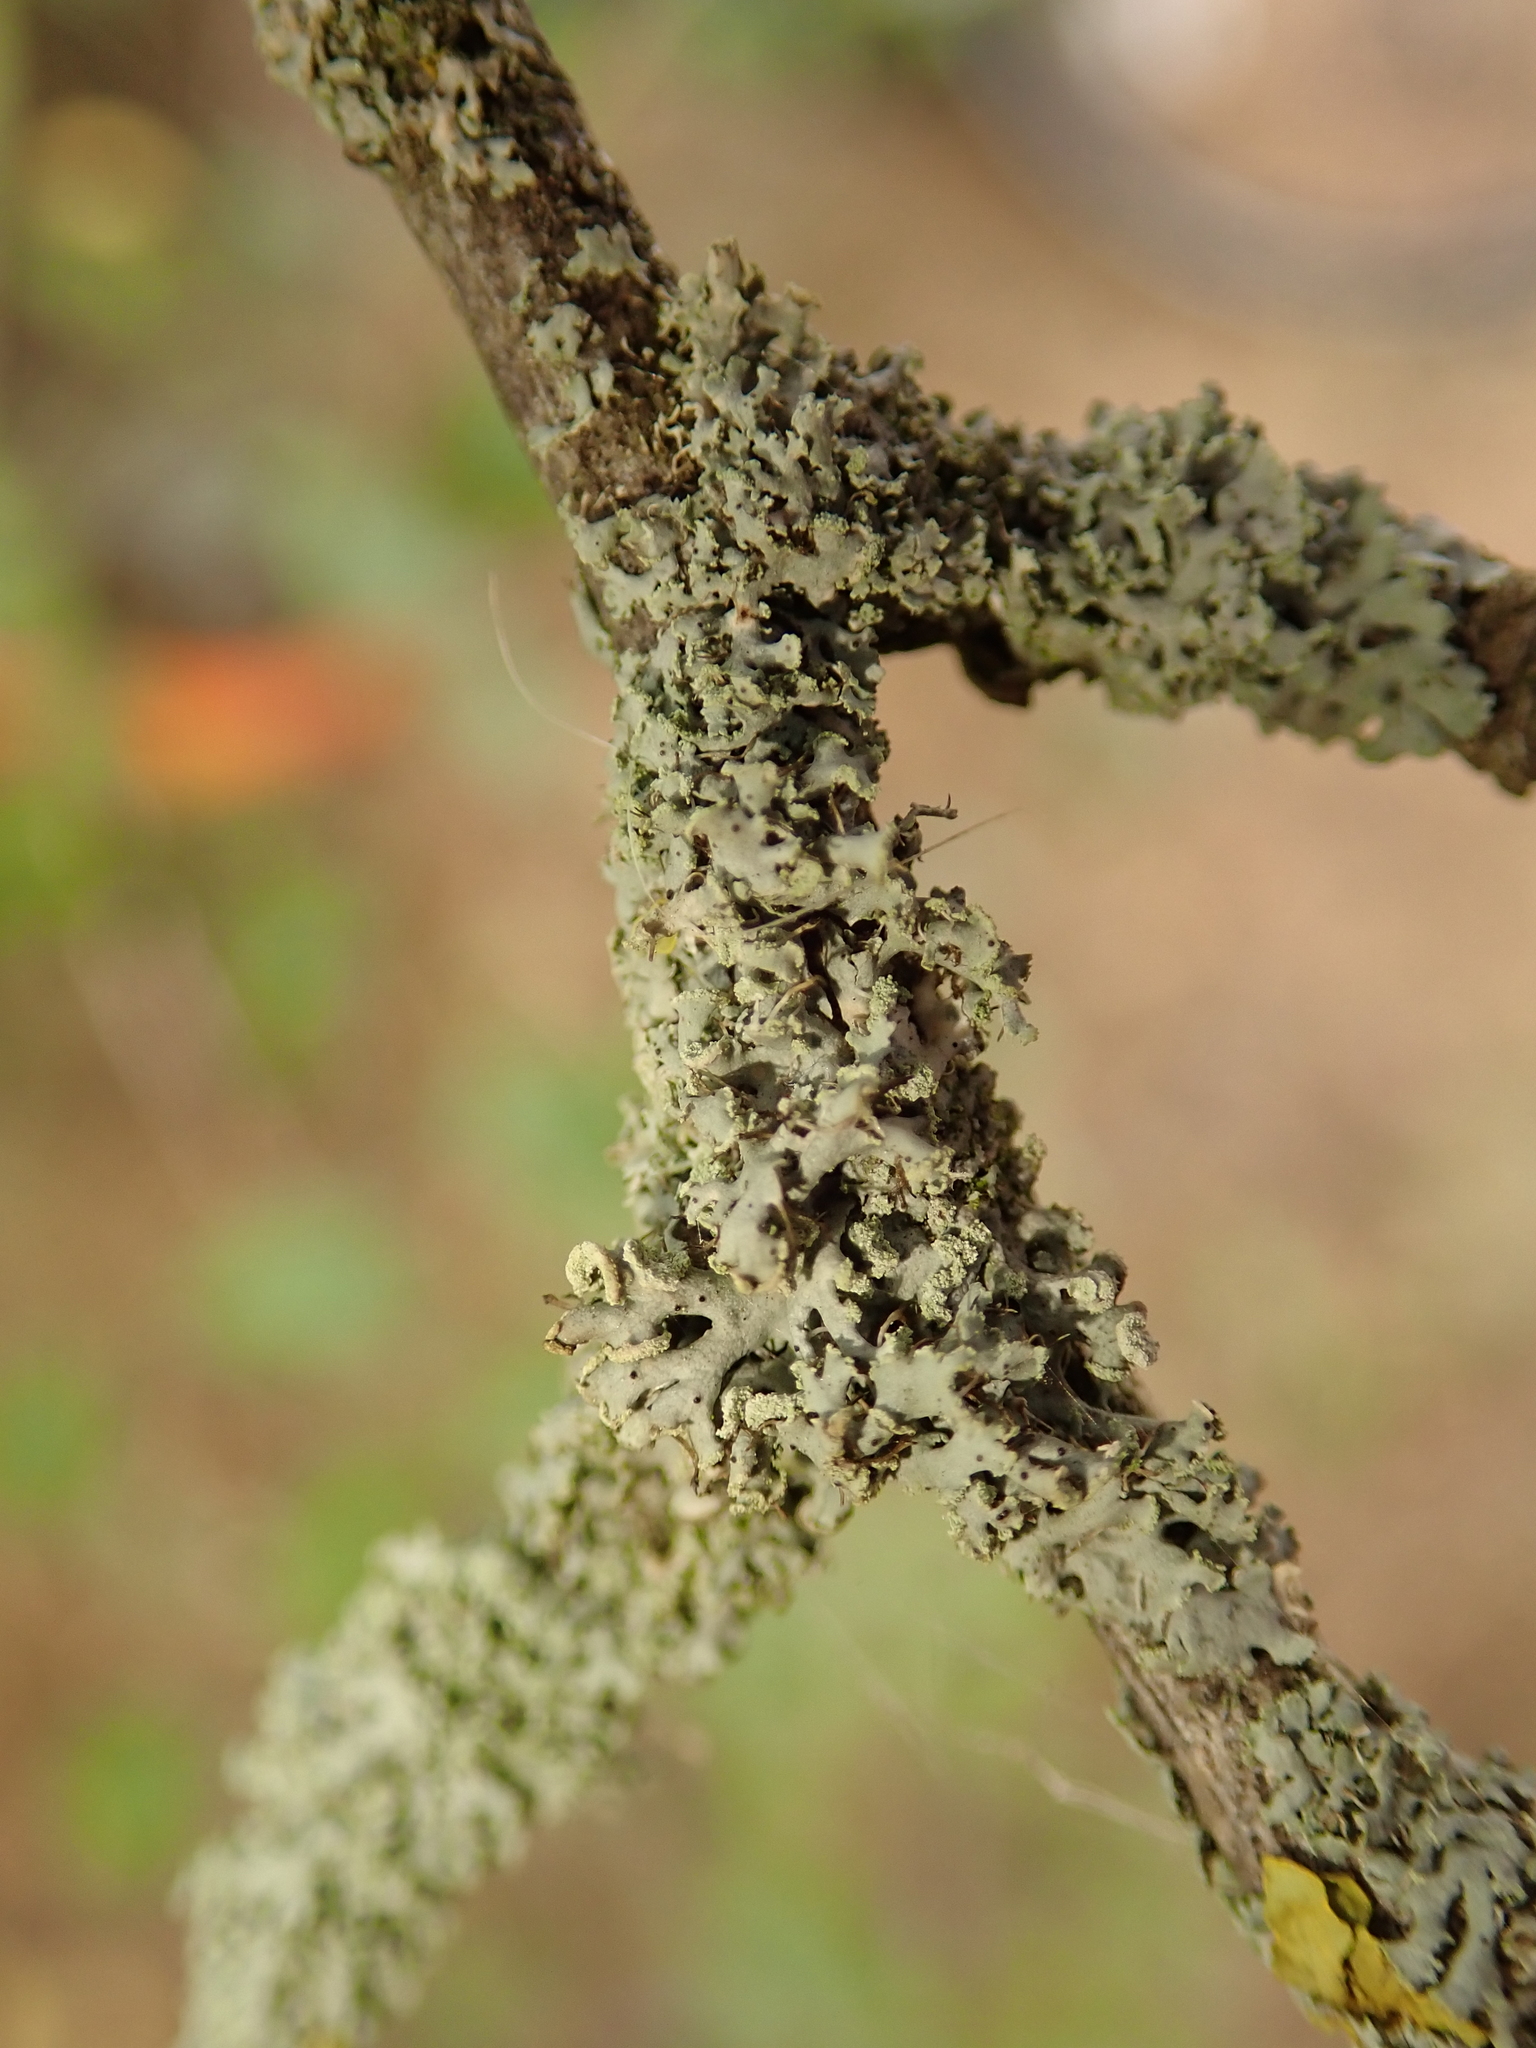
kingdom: Fungi
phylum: Ascomycota
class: Lecanoromycetes
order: Caliciales
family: Physciaceae
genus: Physcia
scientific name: Physcia tenella
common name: Fringed rosette lichen
